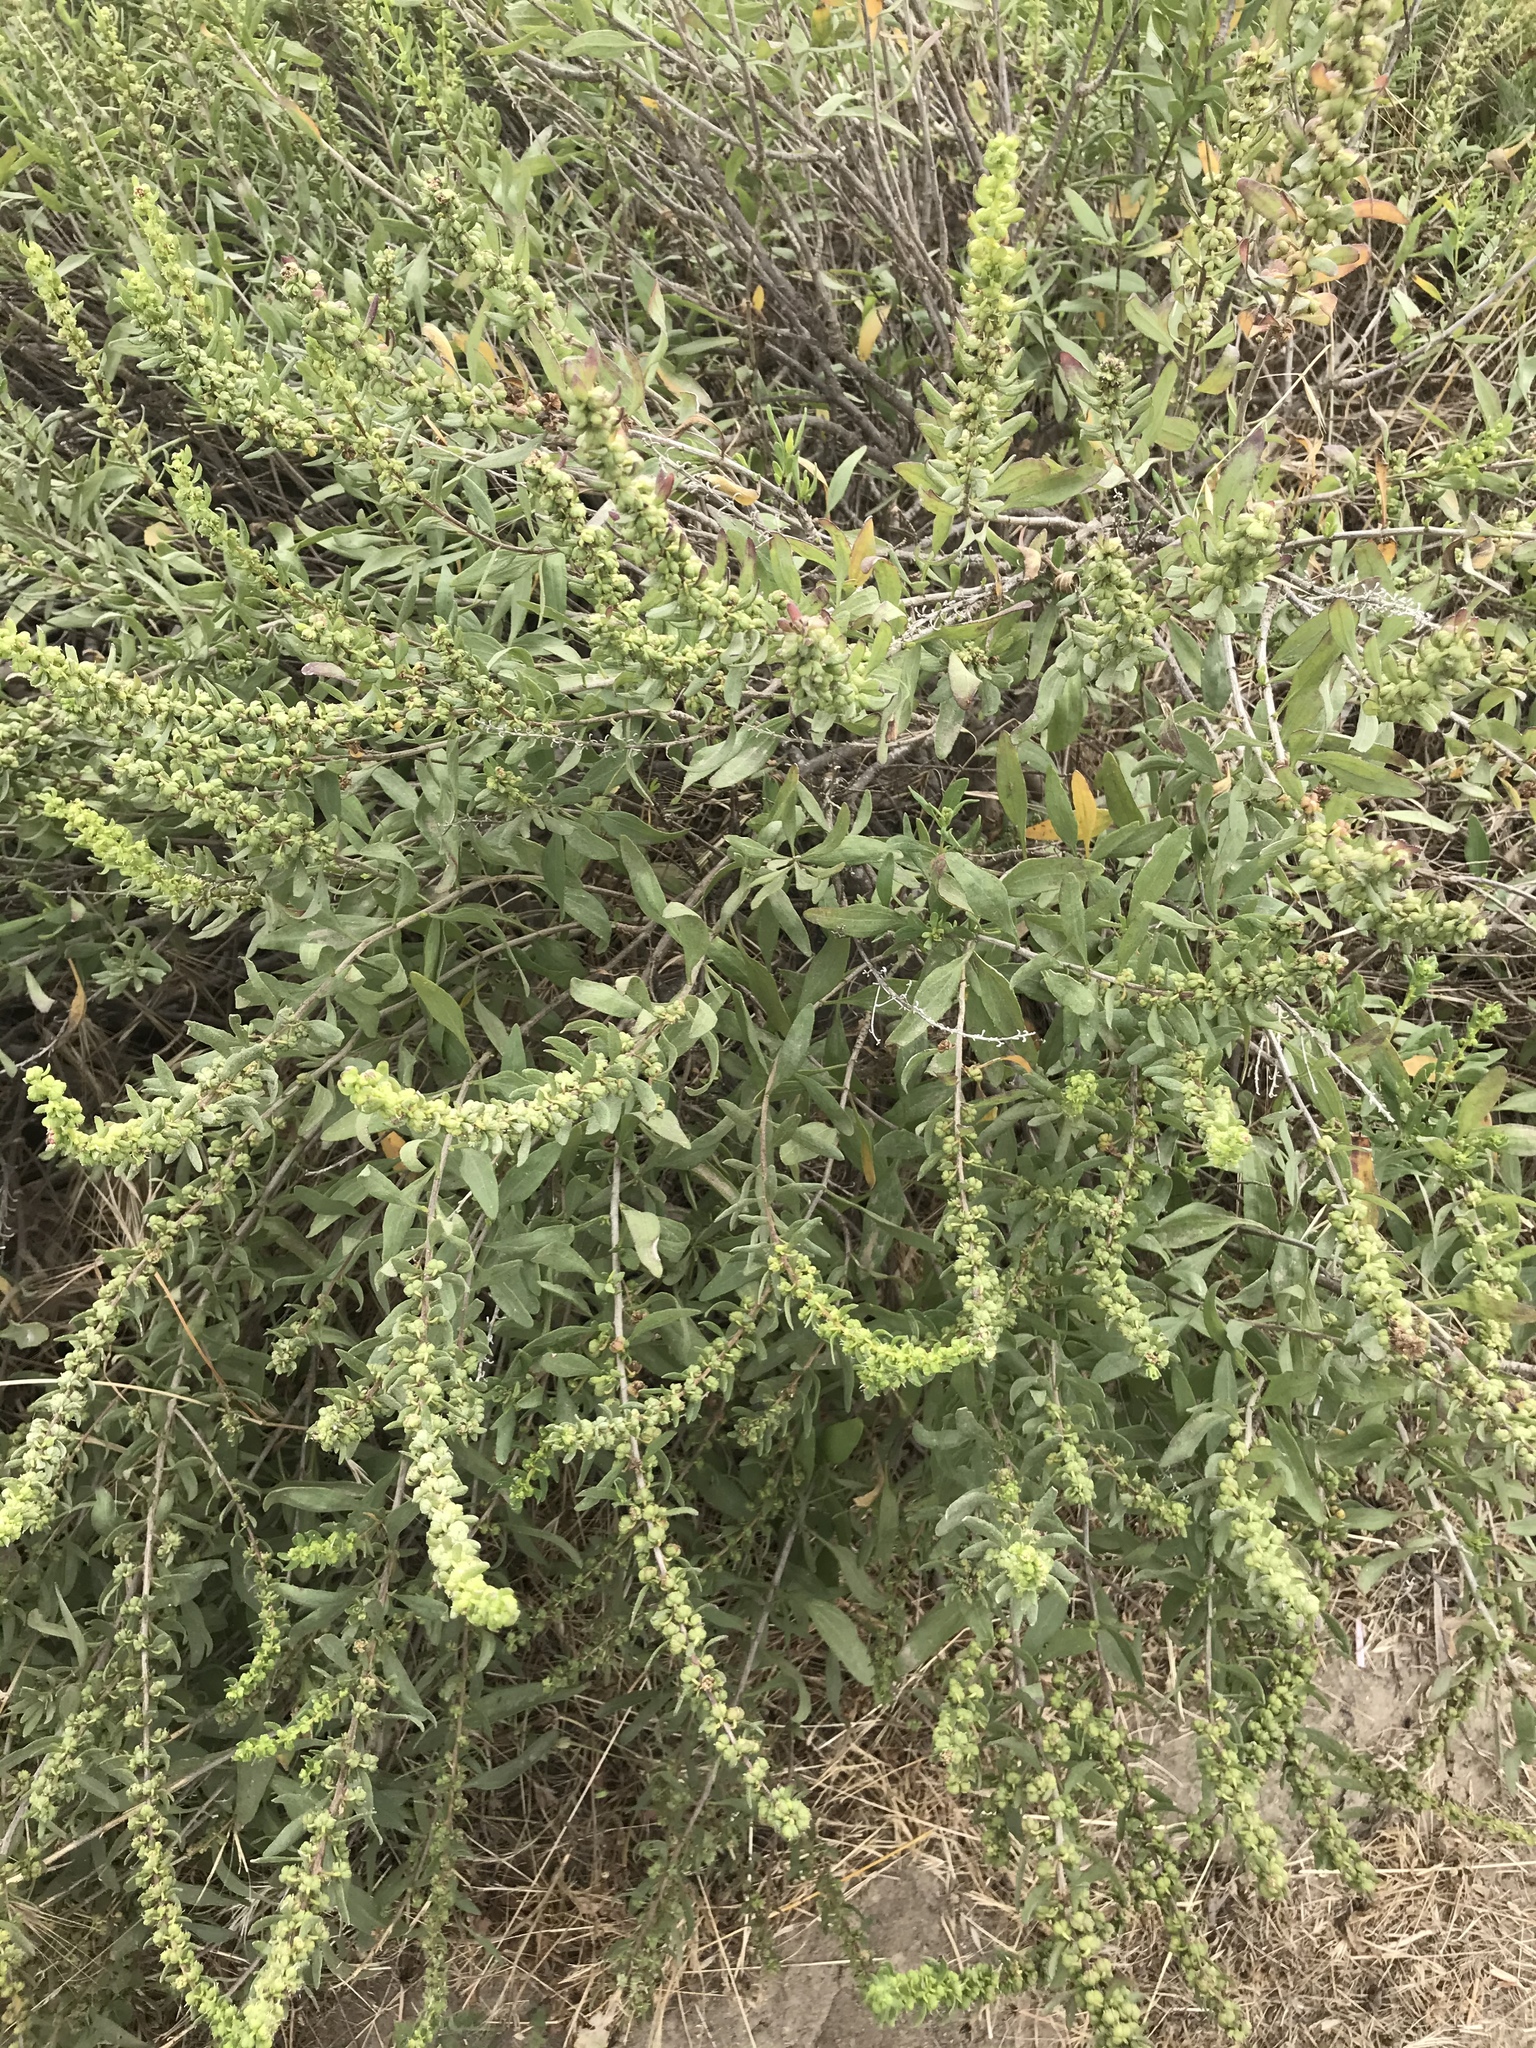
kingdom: Plantae
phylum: Tracheophyta
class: Magnoliopsida
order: Asterales
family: Asteraceae
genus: Iva
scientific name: Iva hayesiana
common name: San diego marsh-elder
